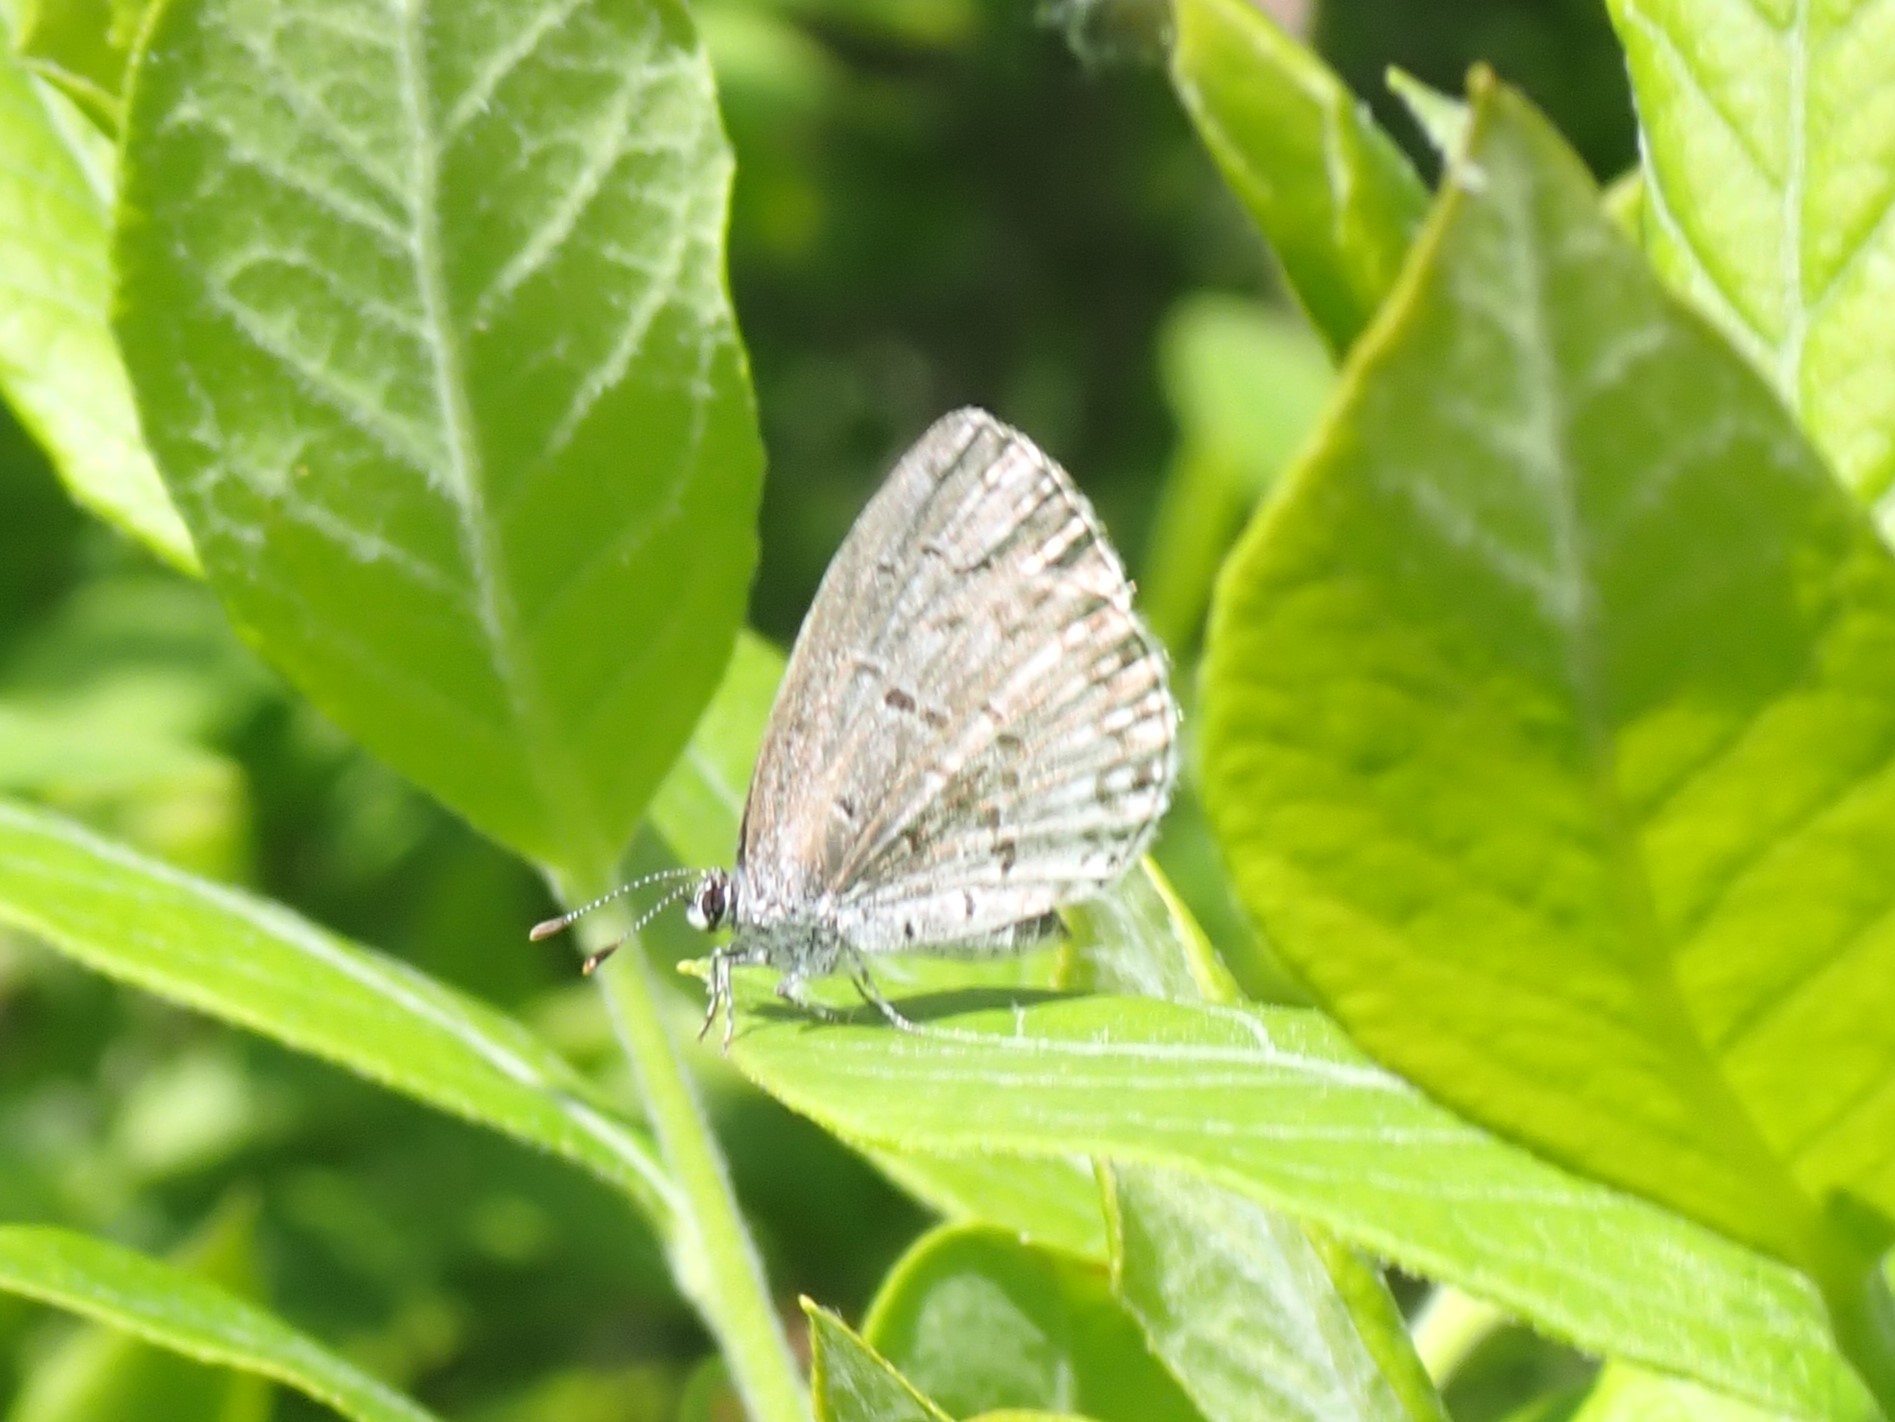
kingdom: Animalia
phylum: Arthropoda
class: Insecta
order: Lepidoptera
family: Lycaenidae
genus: Celastrina
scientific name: Celastrina lucia
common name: Lucia azure
